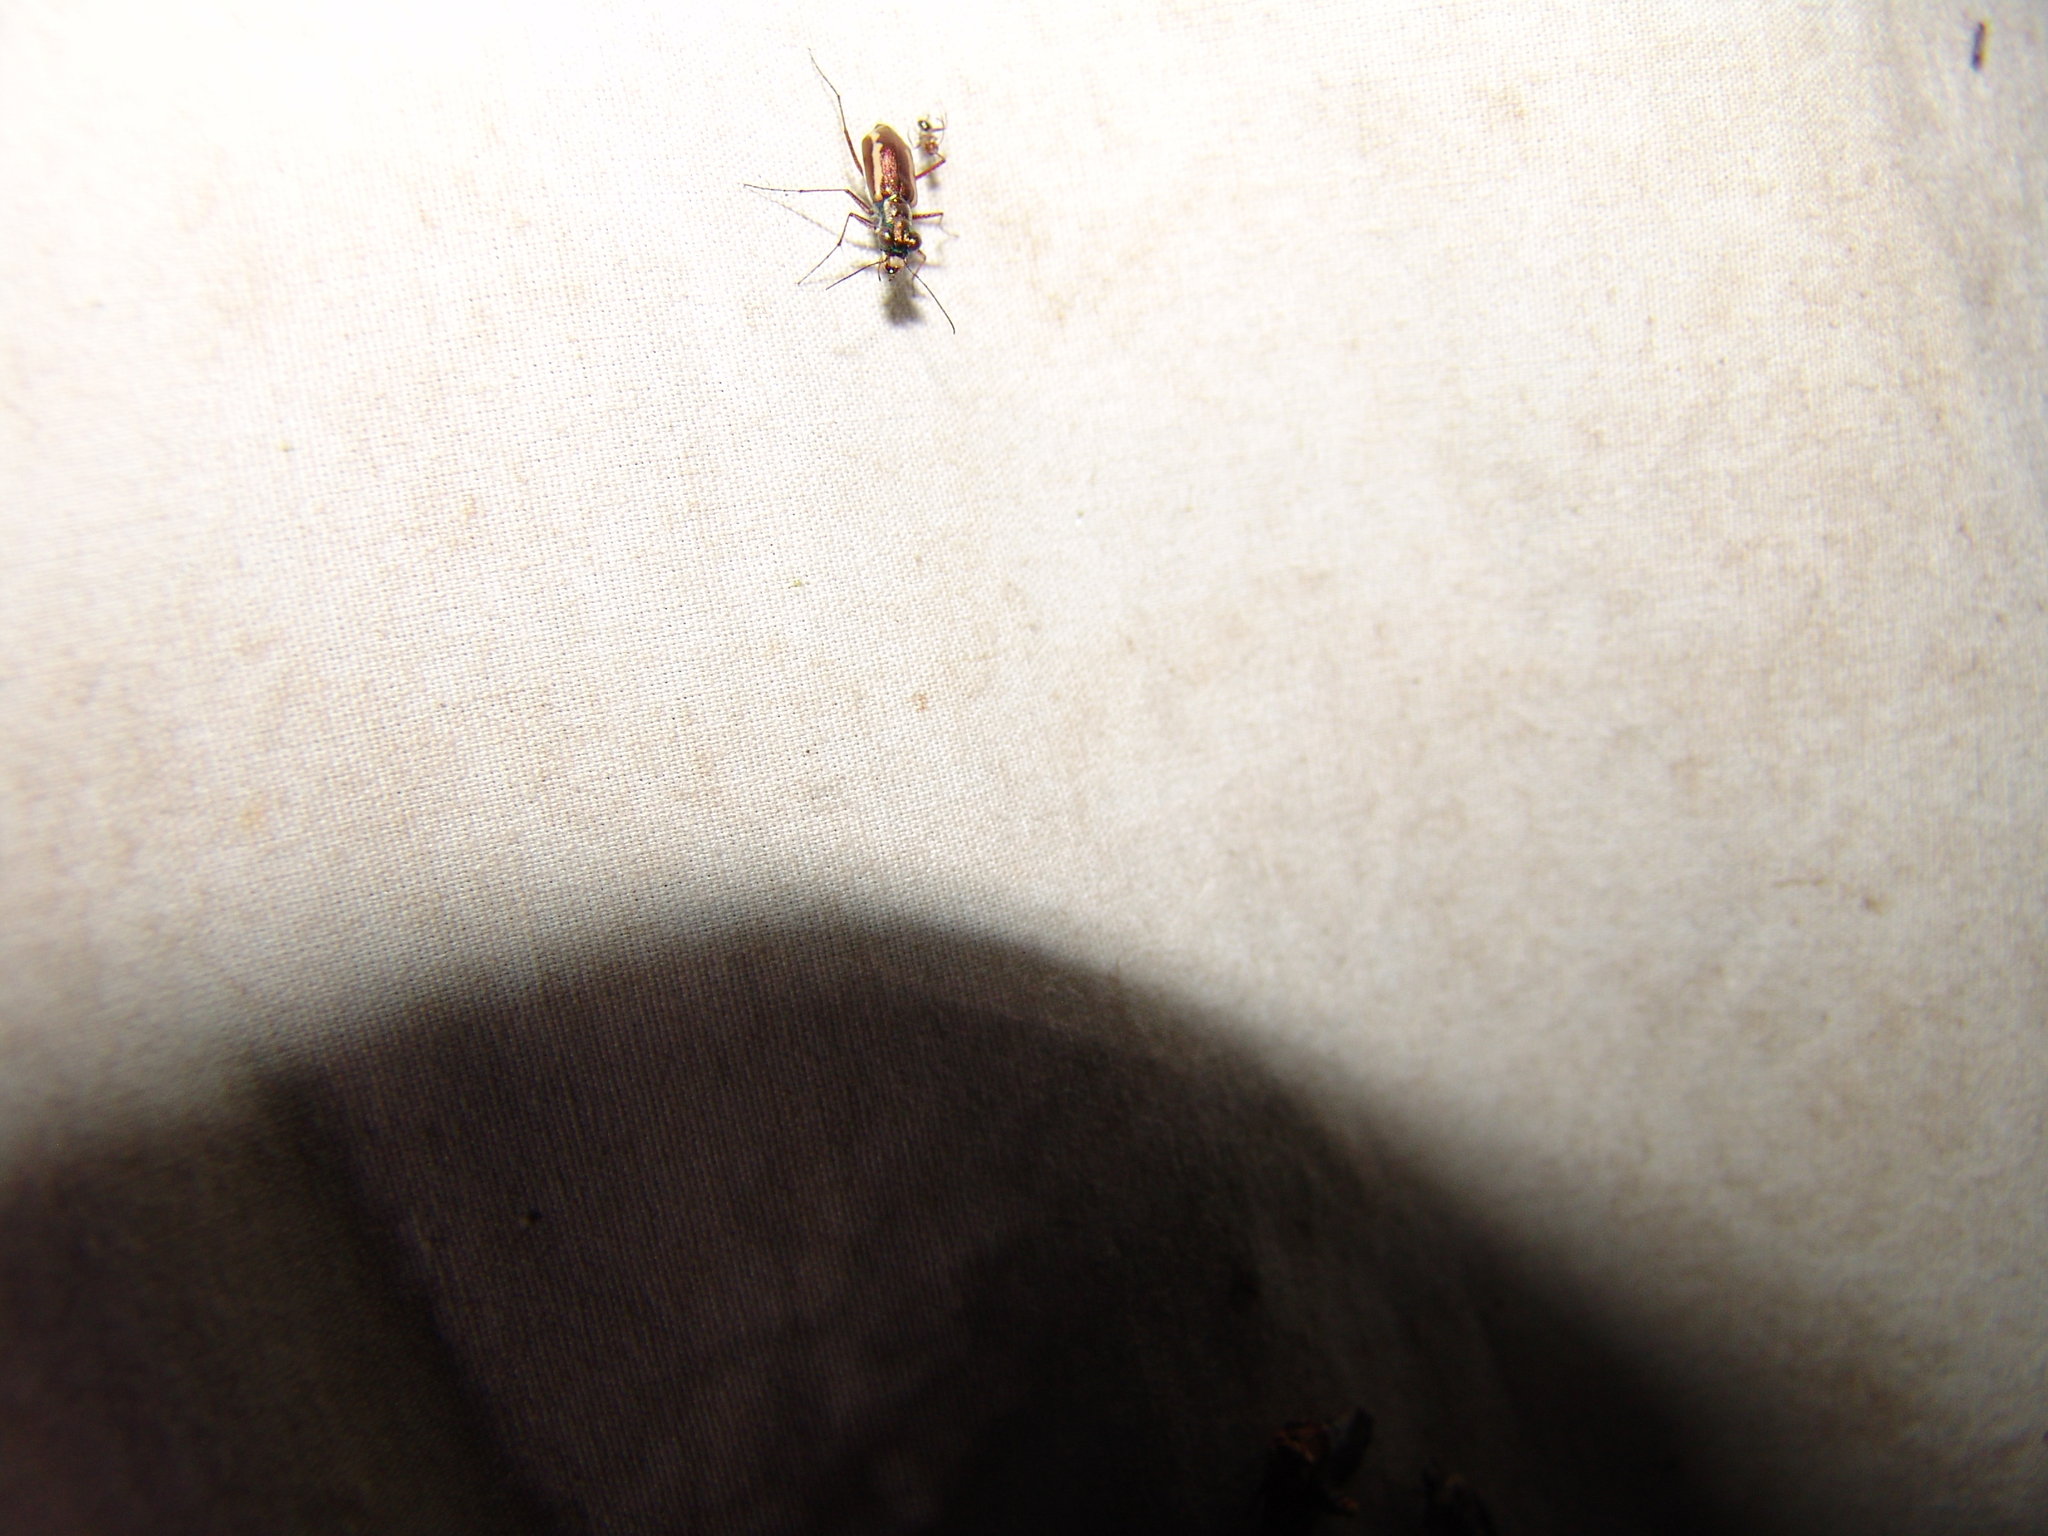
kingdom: Animalia
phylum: Arthropoda
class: Insecta
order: Coleoptera
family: Carabidae
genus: Cylindera
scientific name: Cylindera lemniscata
